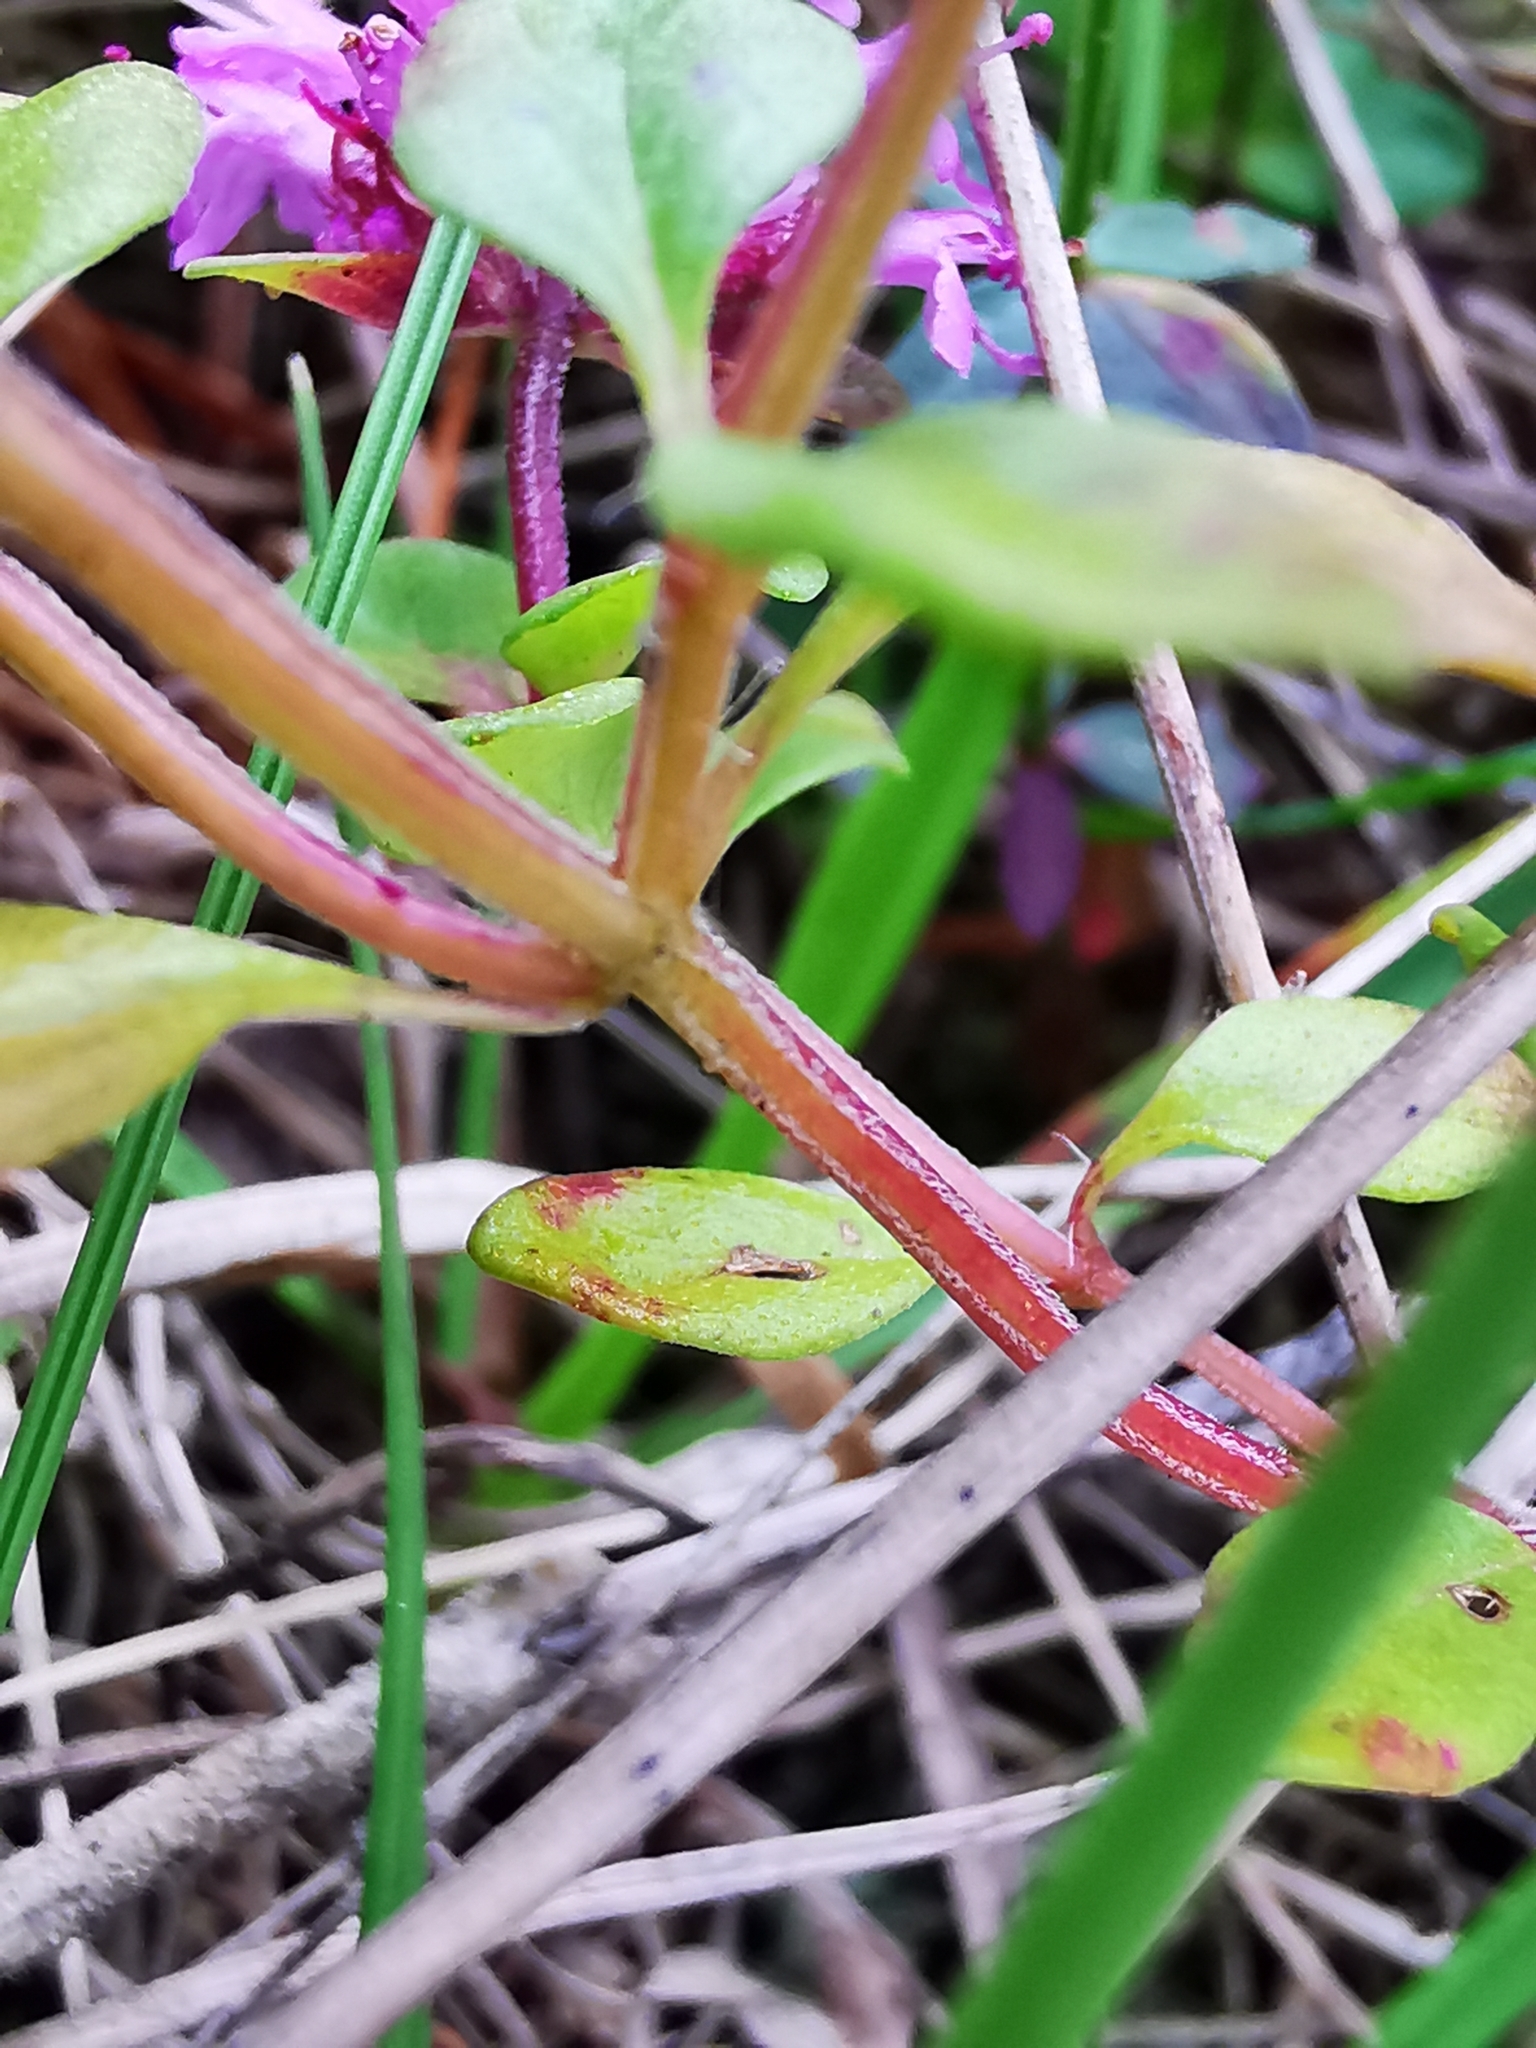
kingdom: Plantae
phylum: Tracheophyta
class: Magnoliopsida
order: Lamiales
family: Lamiaceae
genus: Thymus
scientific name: Thymus pulegioides
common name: Large thyme
